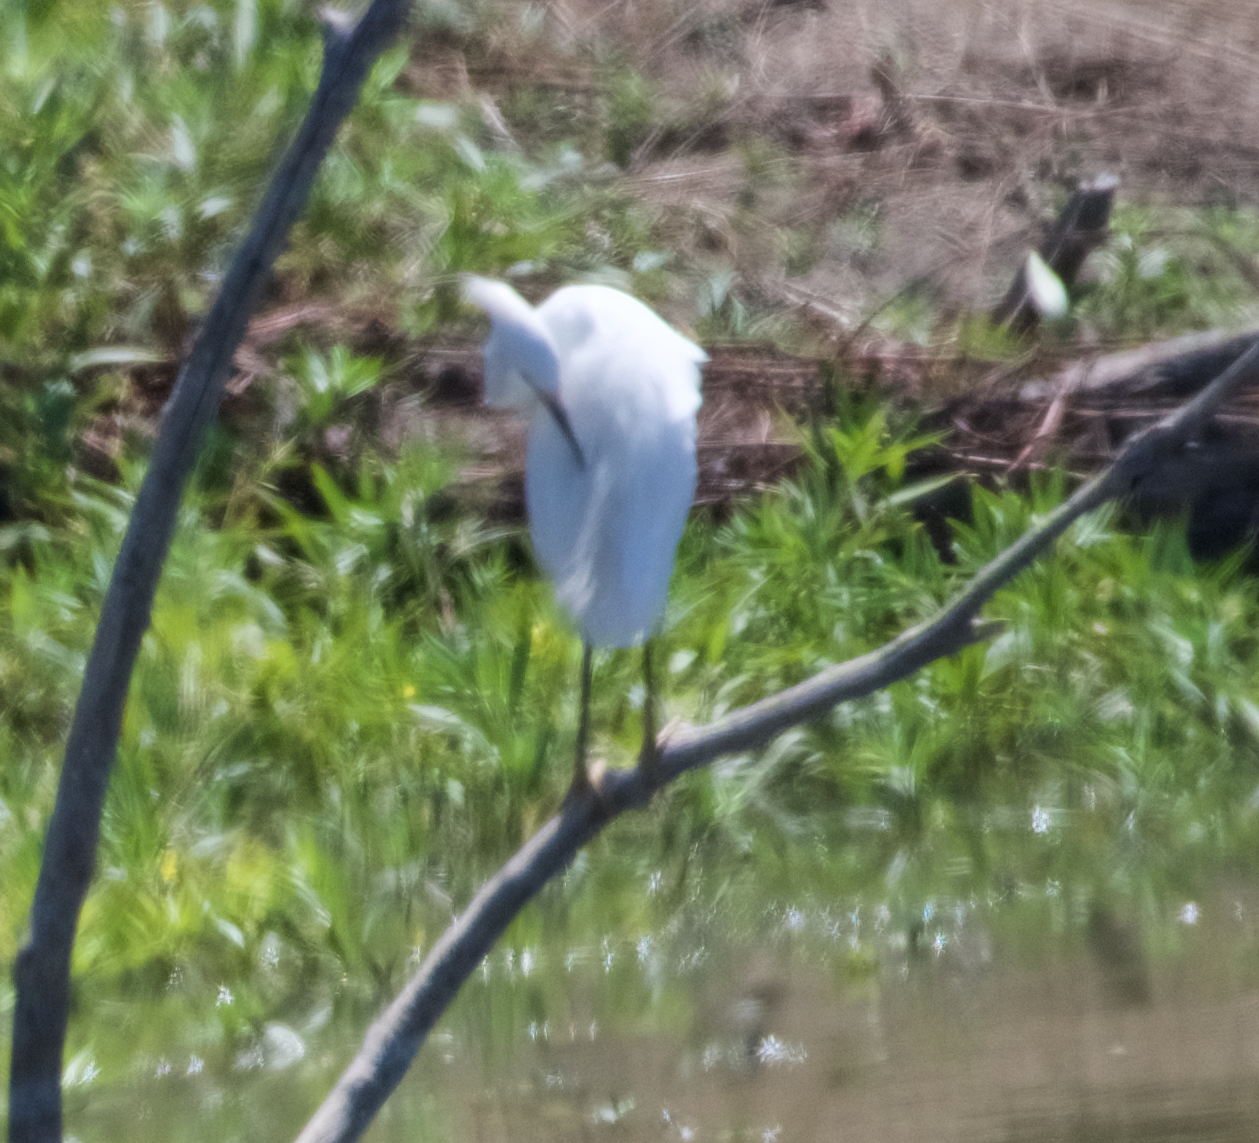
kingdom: Animalia
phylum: Chordata
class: Aves
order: Pelecaniformes
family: Ardeidae
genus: Egretta
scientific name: Egretta thula
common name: Snowy egret
